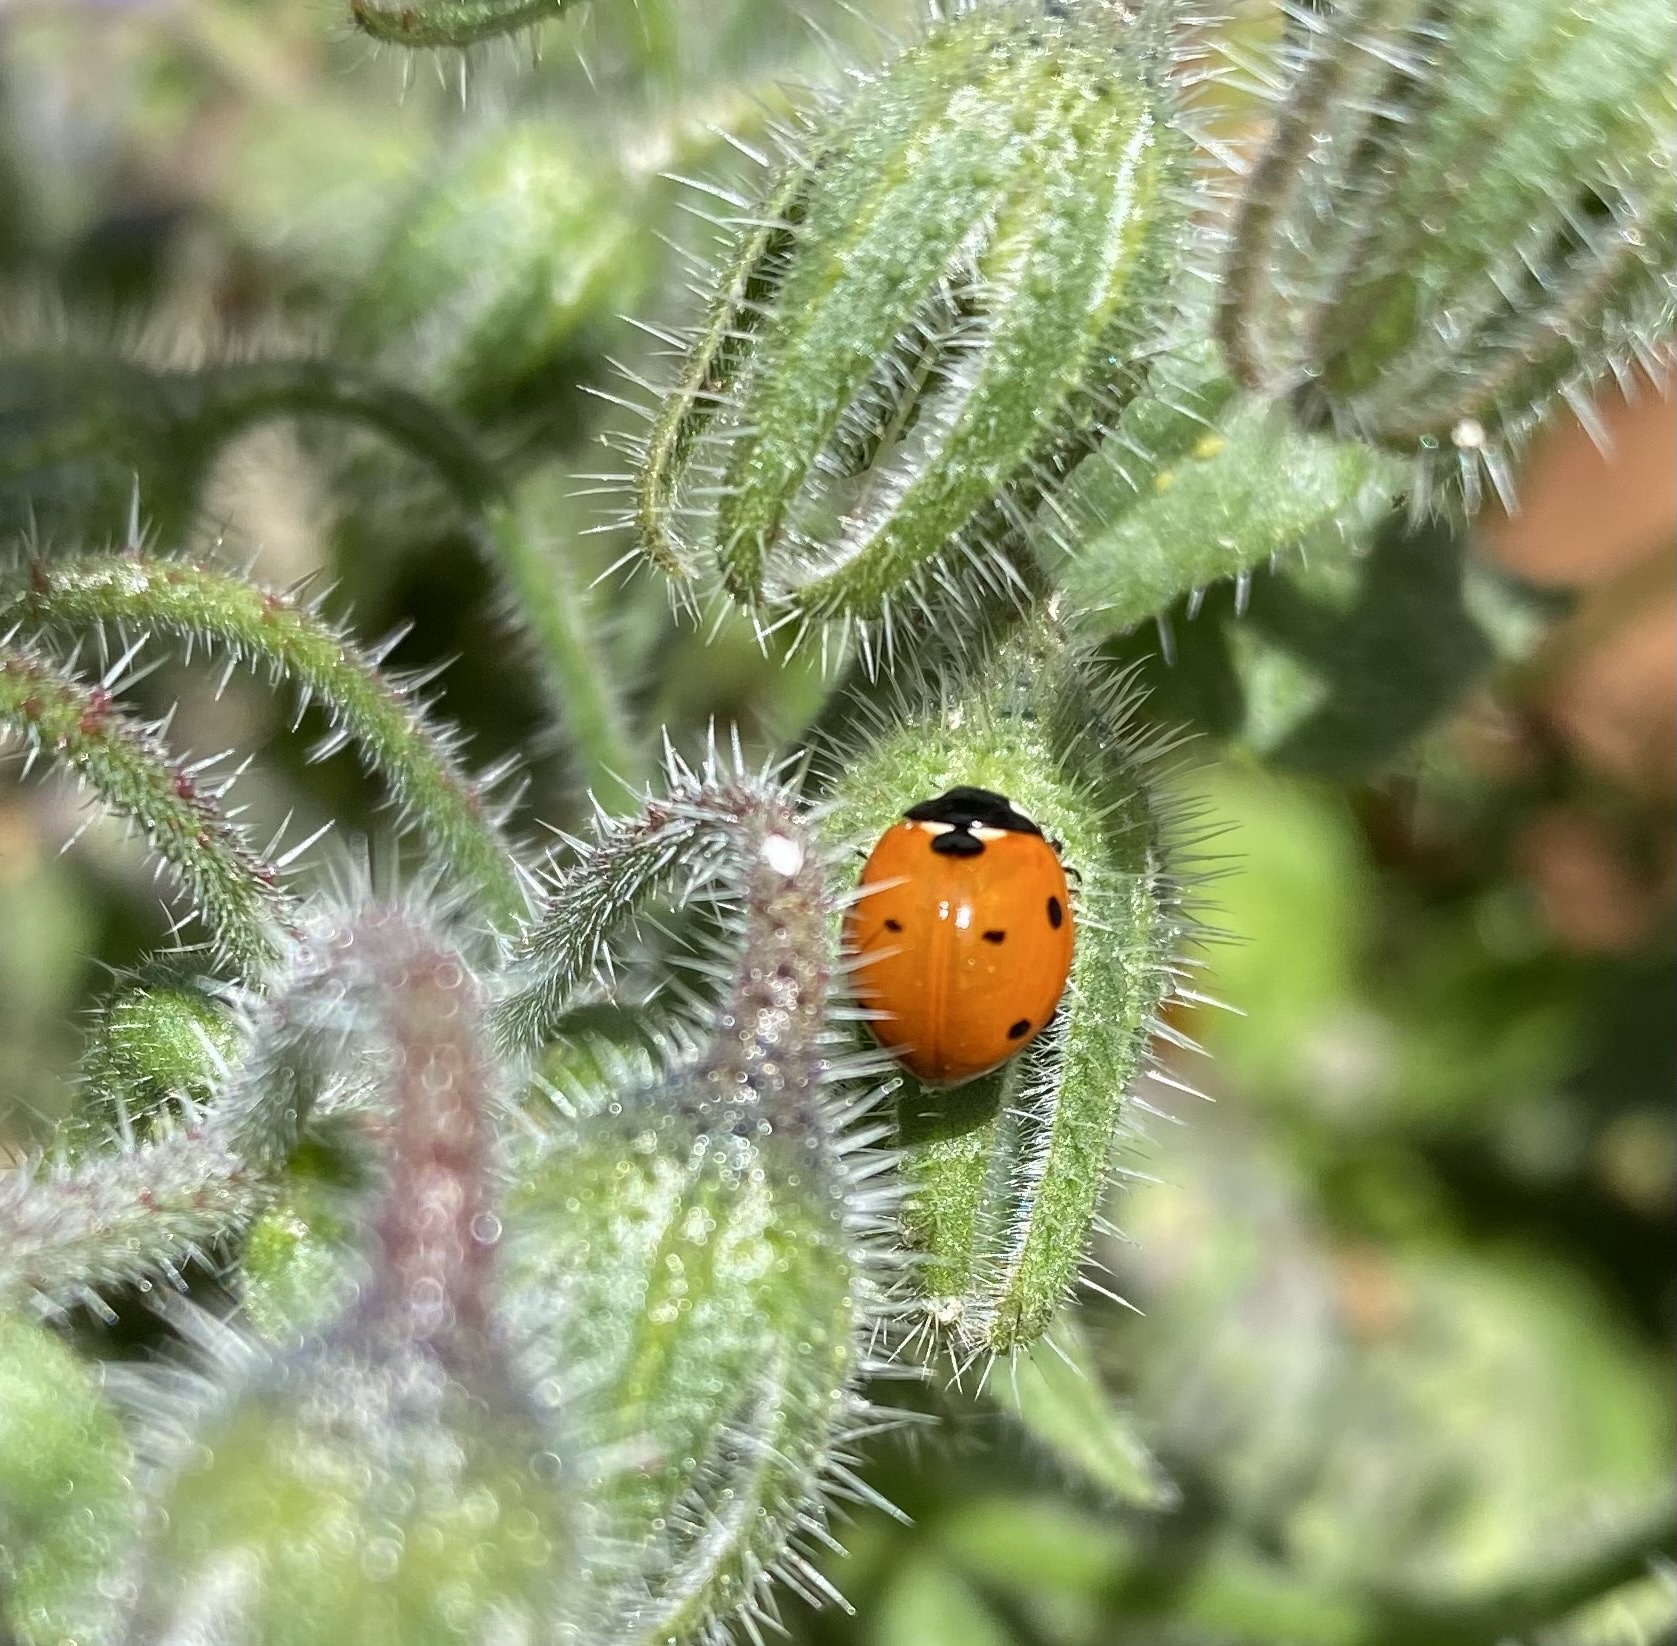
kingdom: Animalia
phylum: Arthropoda
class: Insecta
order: Coleoptera
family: Coccinellidae
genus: Coccinella
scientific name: Coccinella septempunctata
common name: Sevenspotted lady beetle
